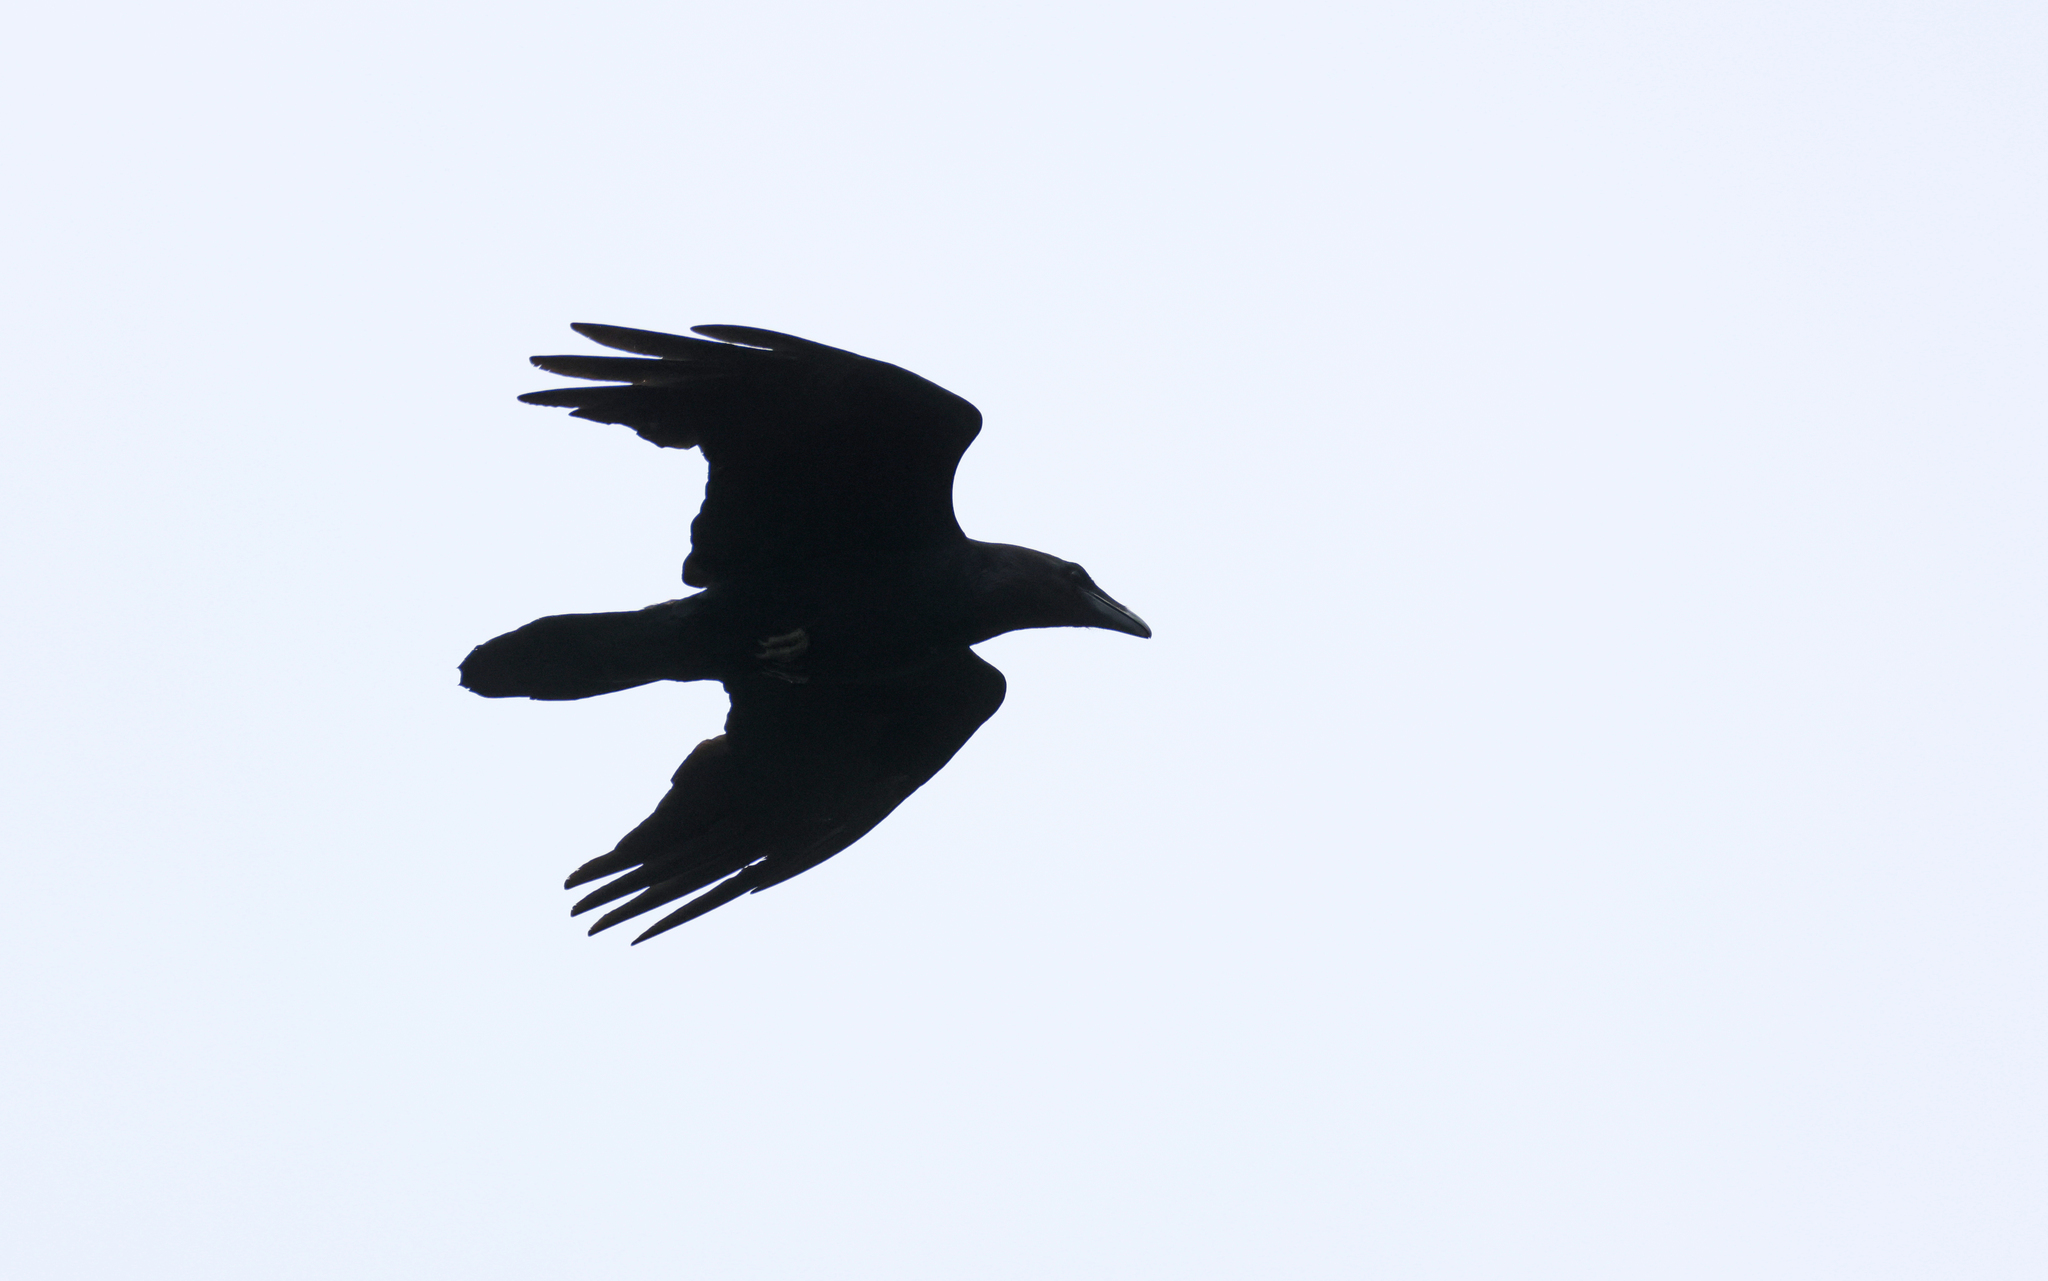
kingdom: Animalia
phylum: Chordata
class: Aves
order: Passeriformes
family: Corvidae
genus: Corvus
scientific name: Corvus corax
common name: Common raven
